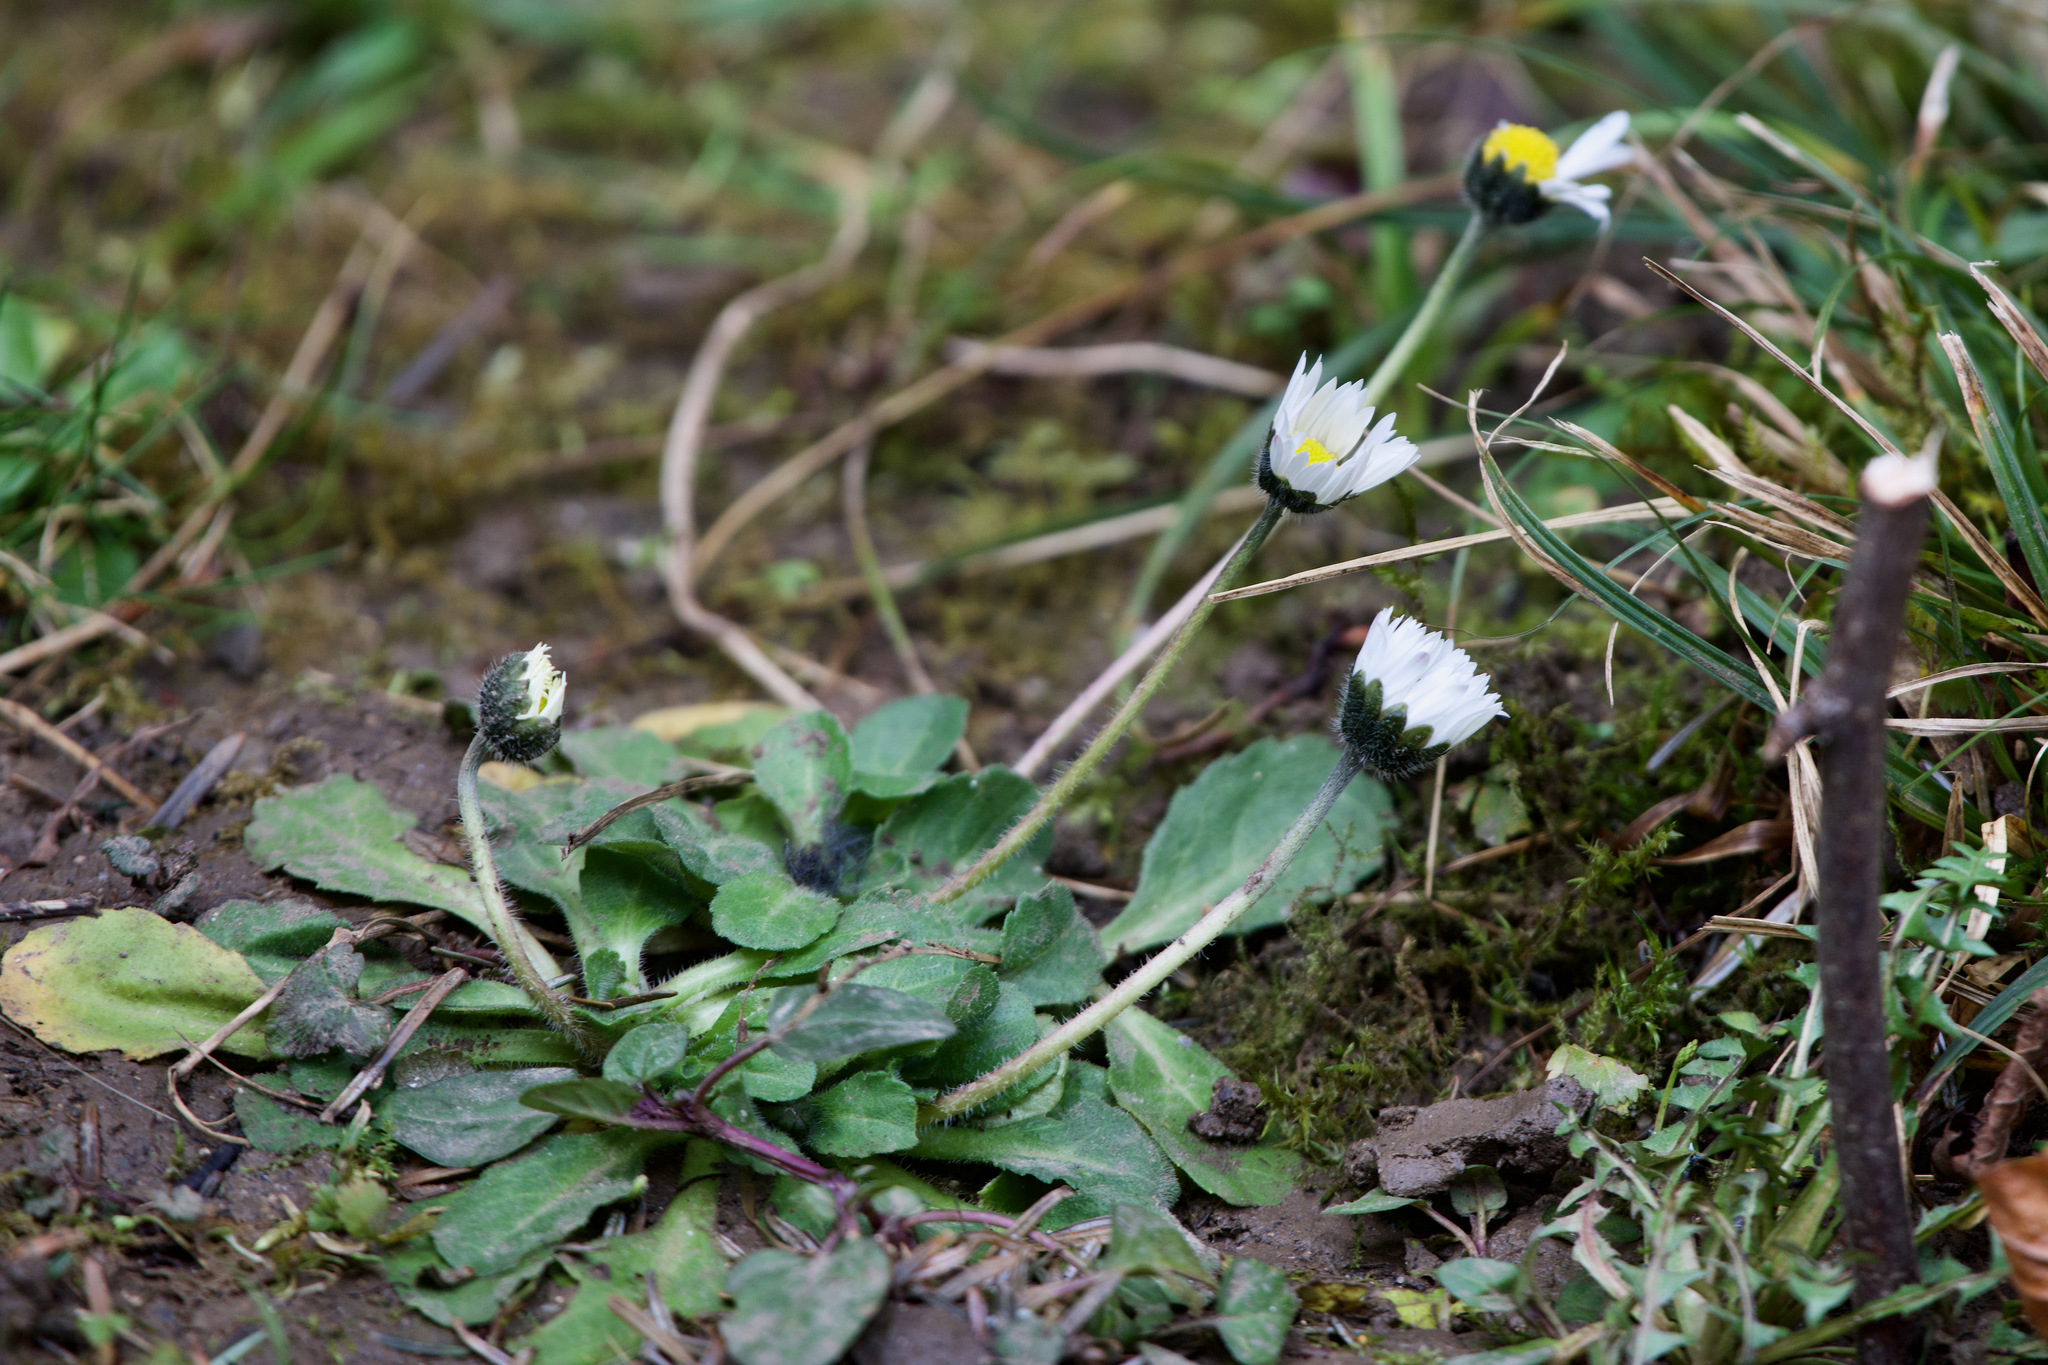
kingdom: Plantae
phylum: Tracheophyta
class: Magnoliopsida
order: Asterales
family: Asteraceae
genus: Bellis
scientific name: Bellis perennis
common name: Lawndaisy
